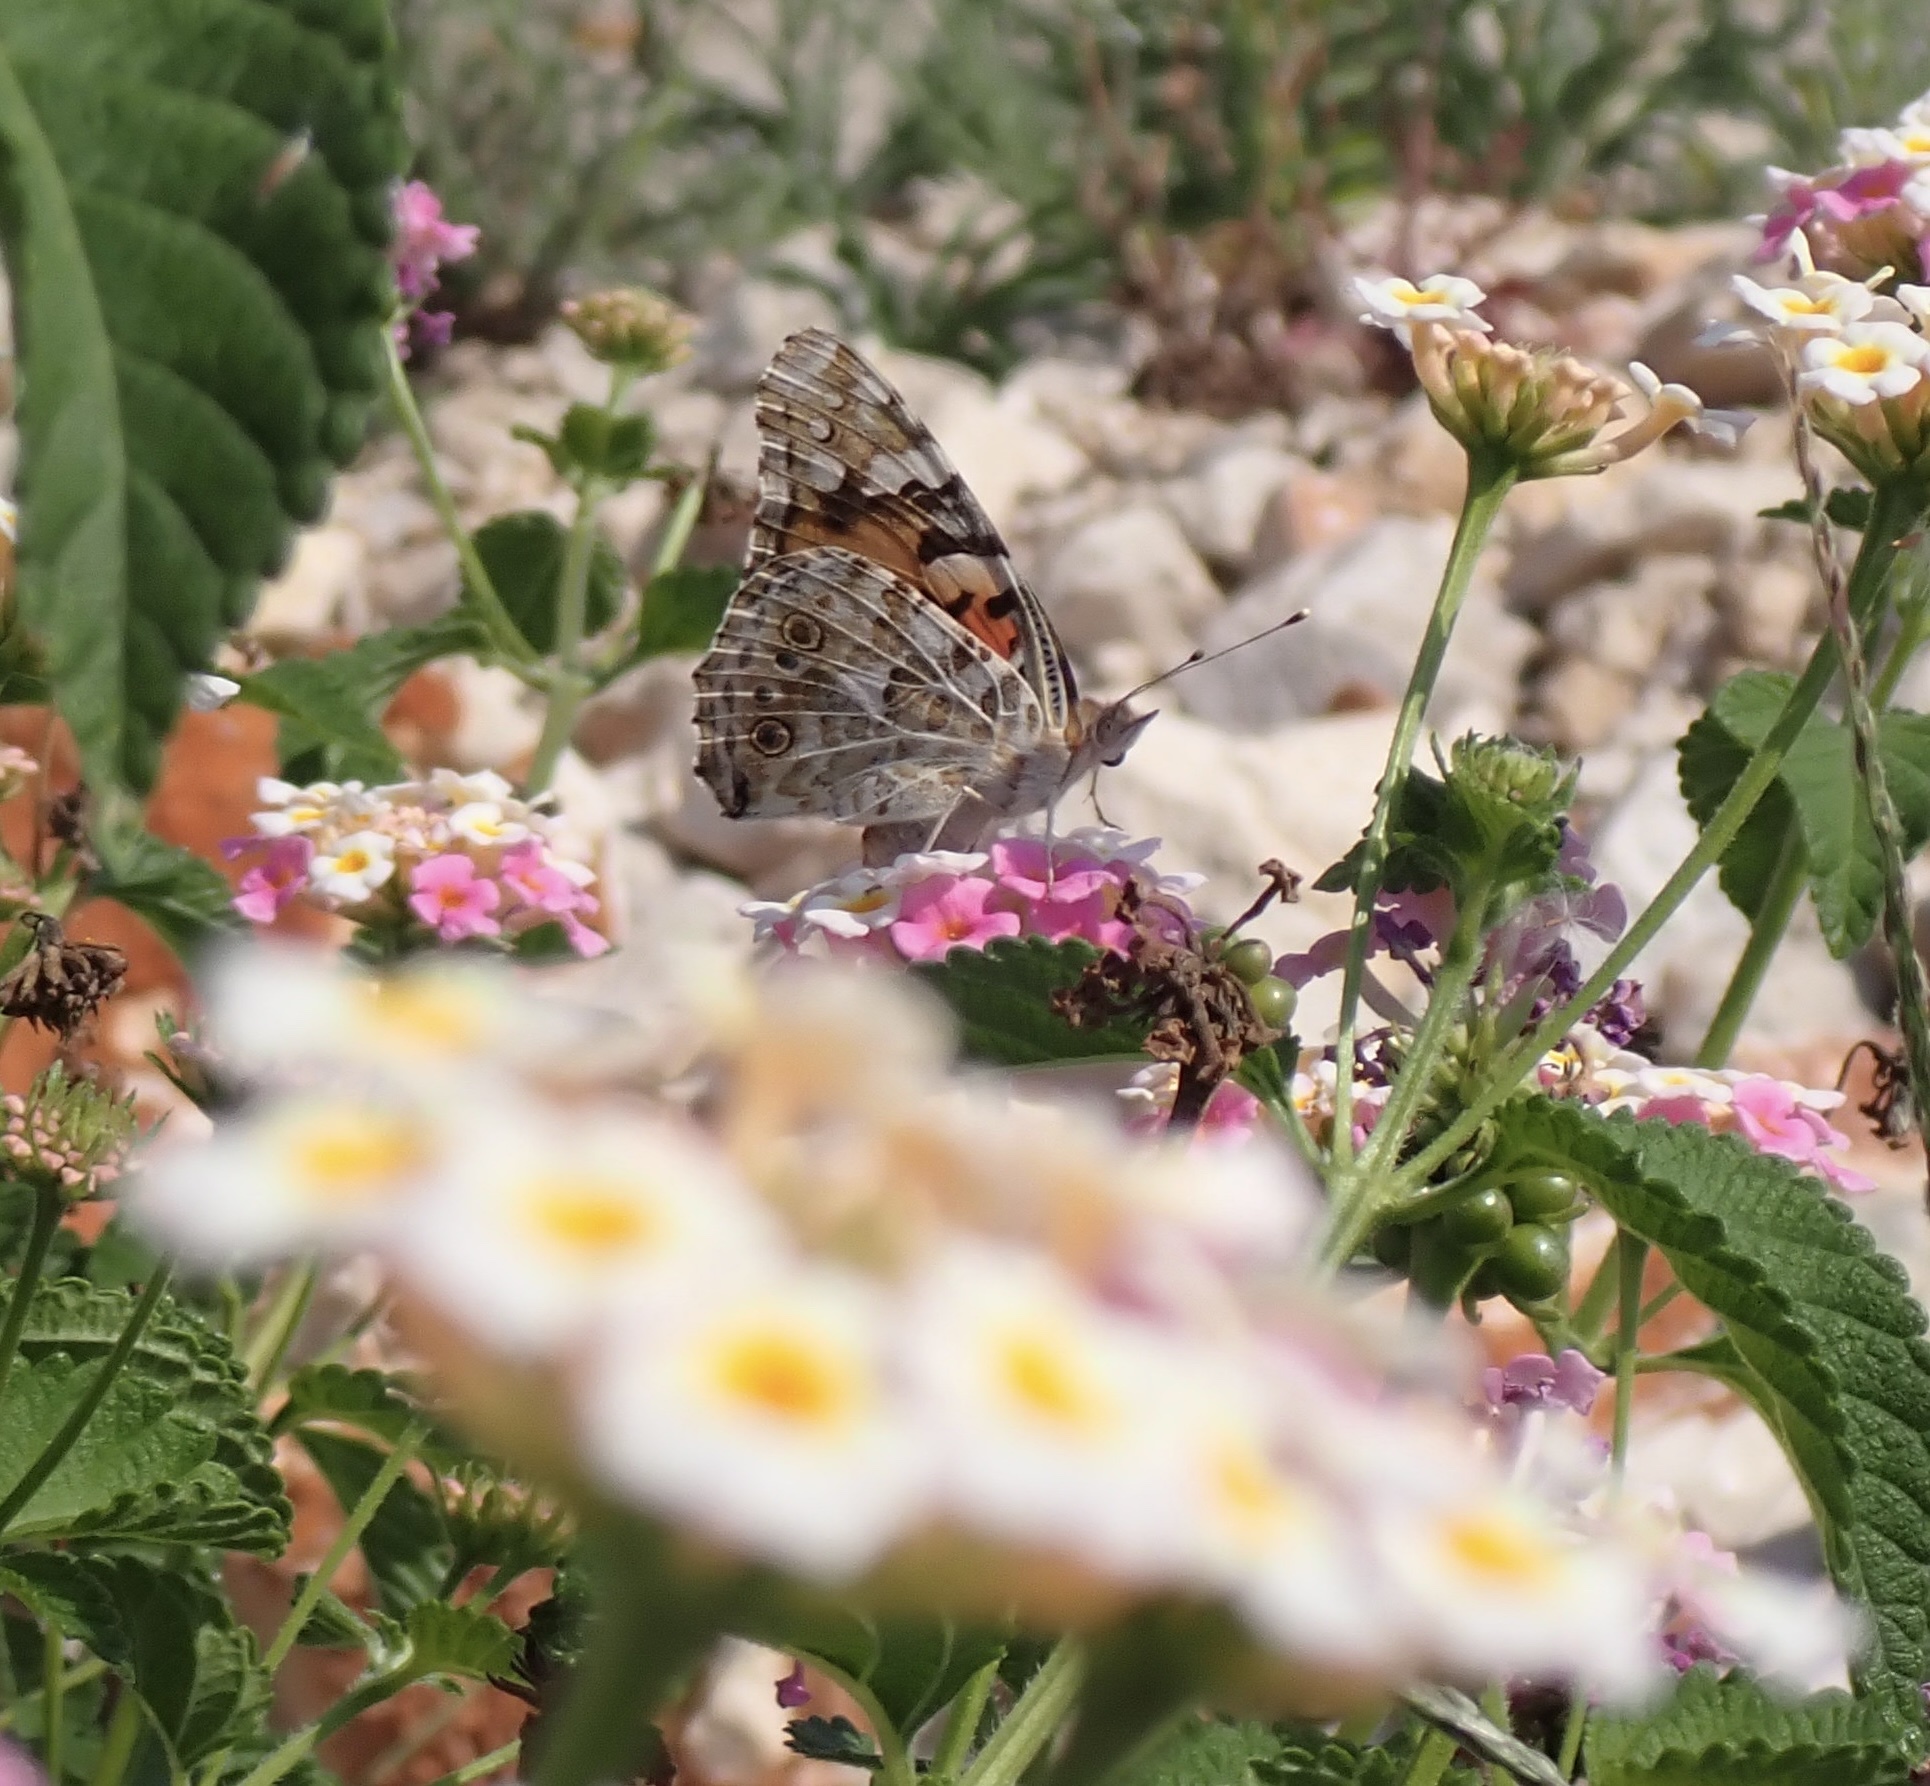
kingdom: Animalia
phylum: Arthropoda
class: Insecta
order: Lepidoptera
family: Nymphalidae
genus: Vanessa
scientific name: Vanessa cardui
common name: Painted lady
